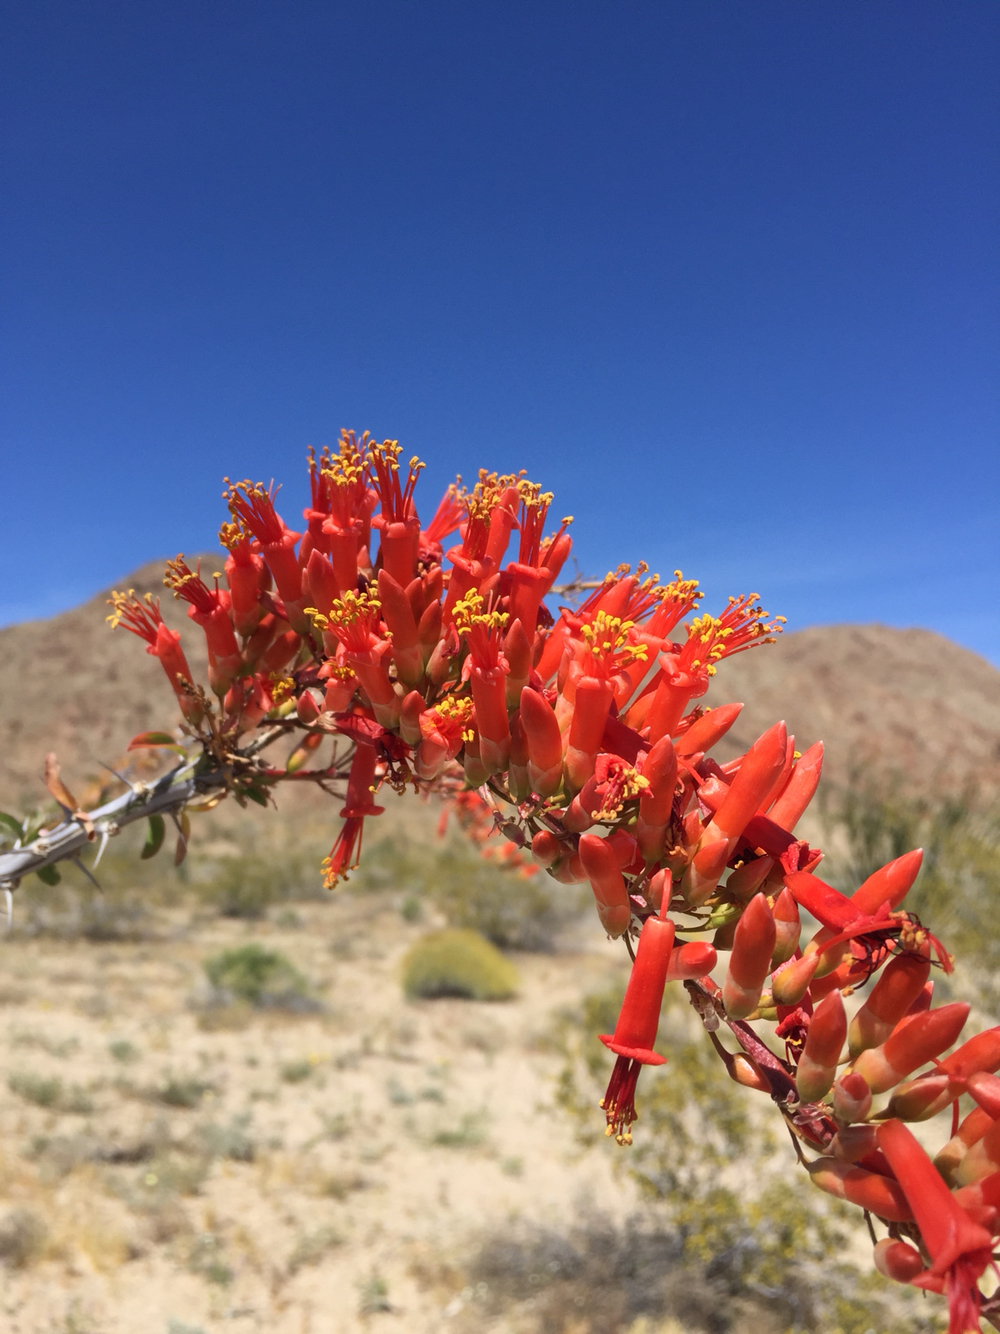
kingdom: Plantae
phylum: Tracheophyta
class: Magnoliopsida
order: Ericales
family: Fouquieriaceae
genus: Fouquieria
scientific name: Fouquieria splendens
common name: Vine-cactus
